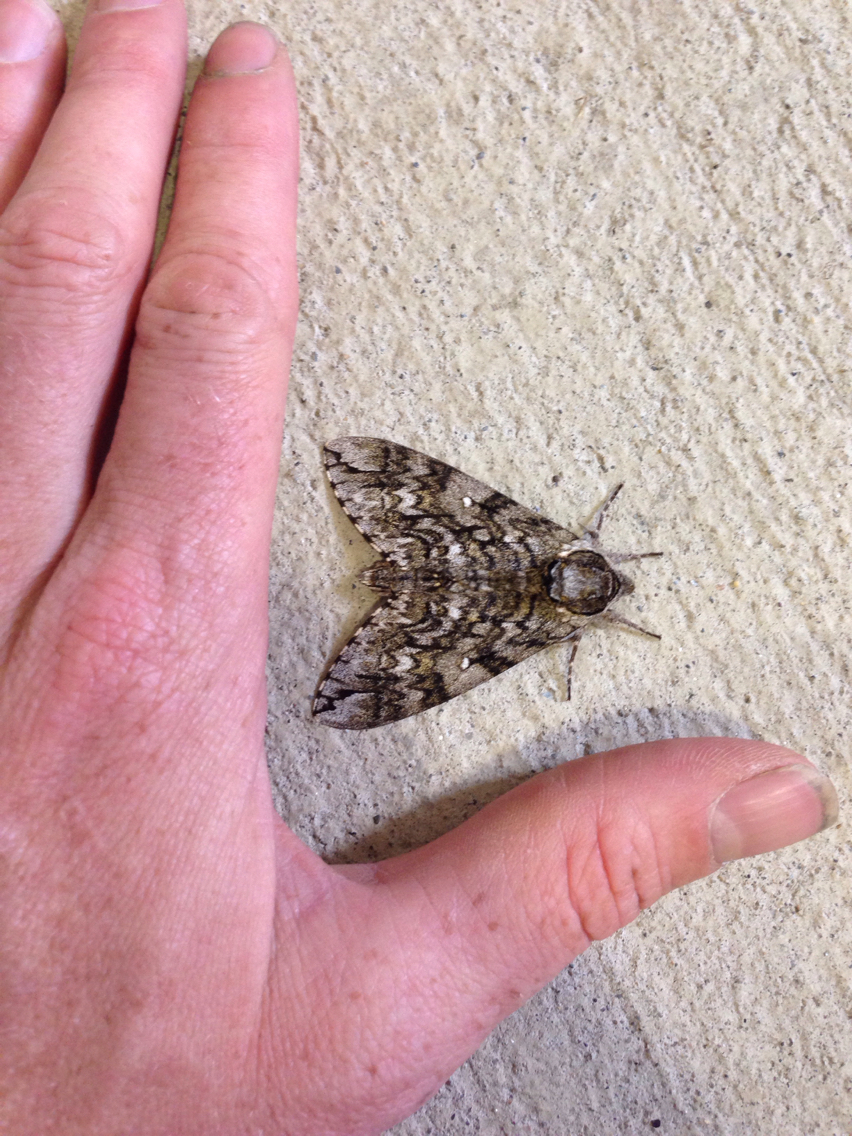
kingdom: Animalia
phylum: Arthropoda
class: Insecta
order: Lepidoptera
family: Sphingidae
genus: Ceratomia
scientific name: Ceratomia undulosa
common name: Waved sphinx
